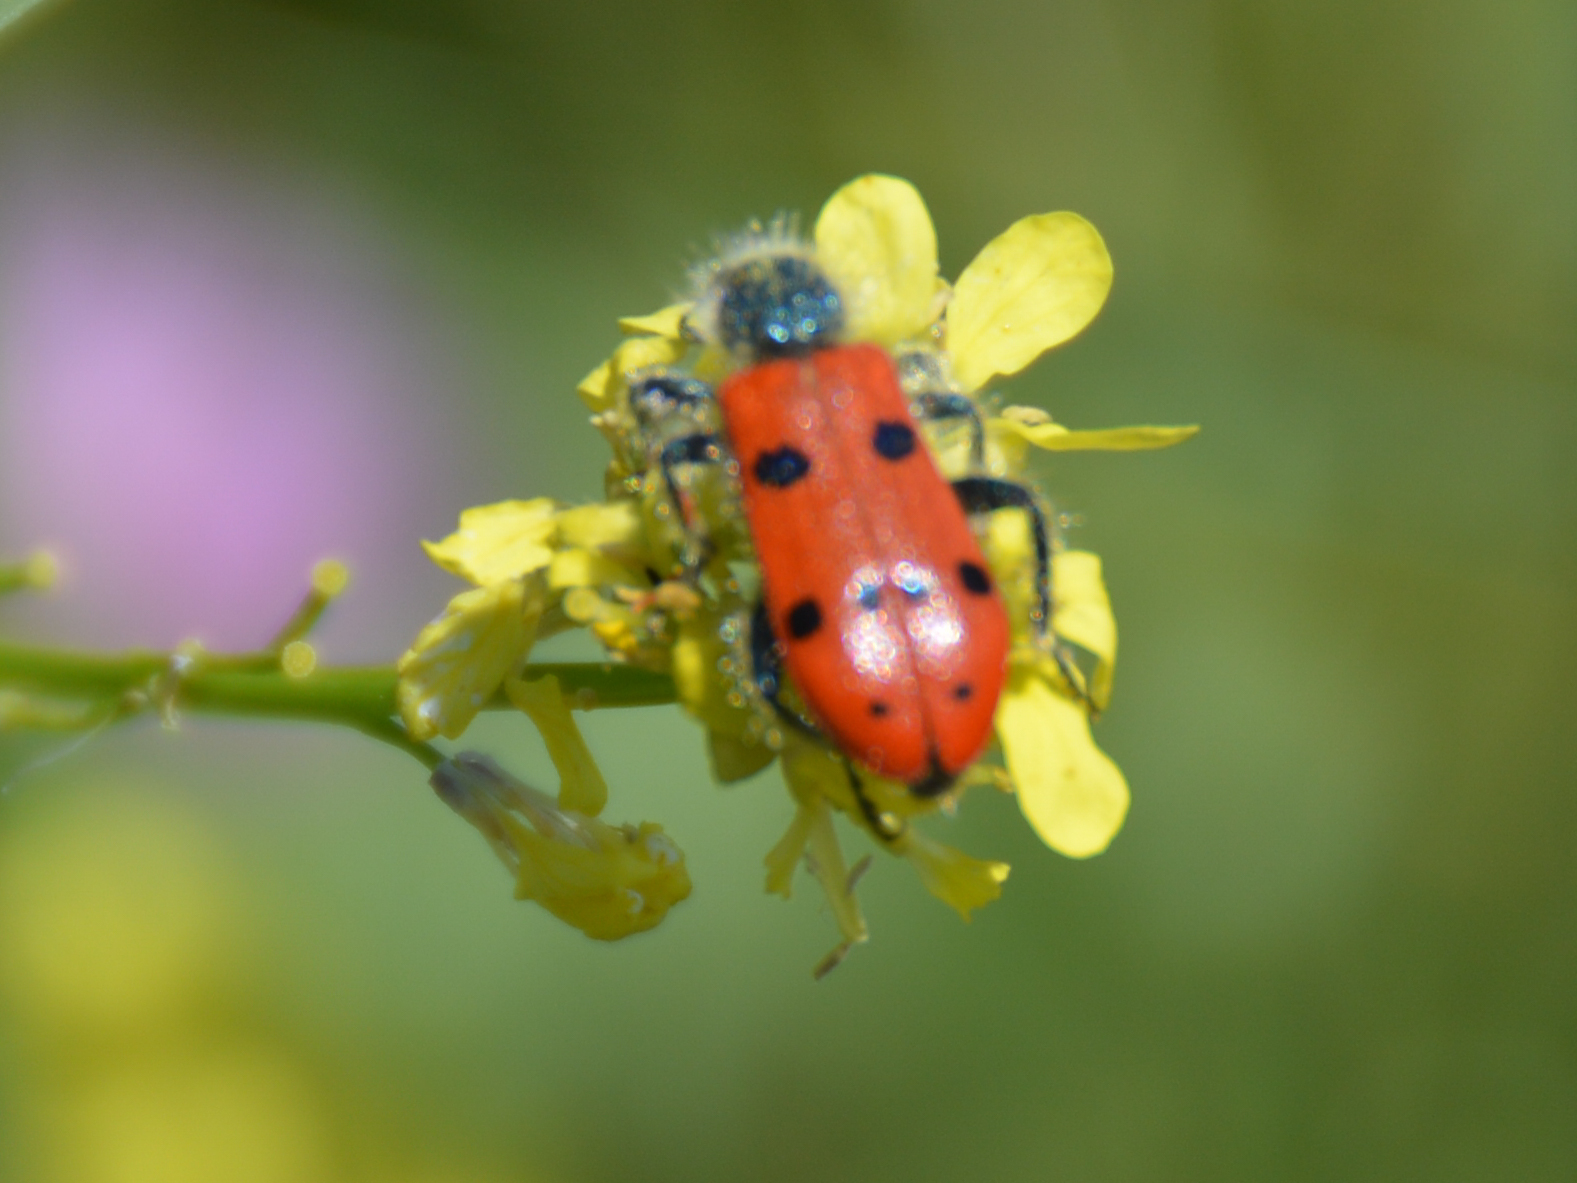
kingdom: Animalia
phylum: Arthropoda
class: Insecta
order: Coleoptera
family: Cleridae
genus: Trichodes
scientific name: Trichodes octopunctatus
